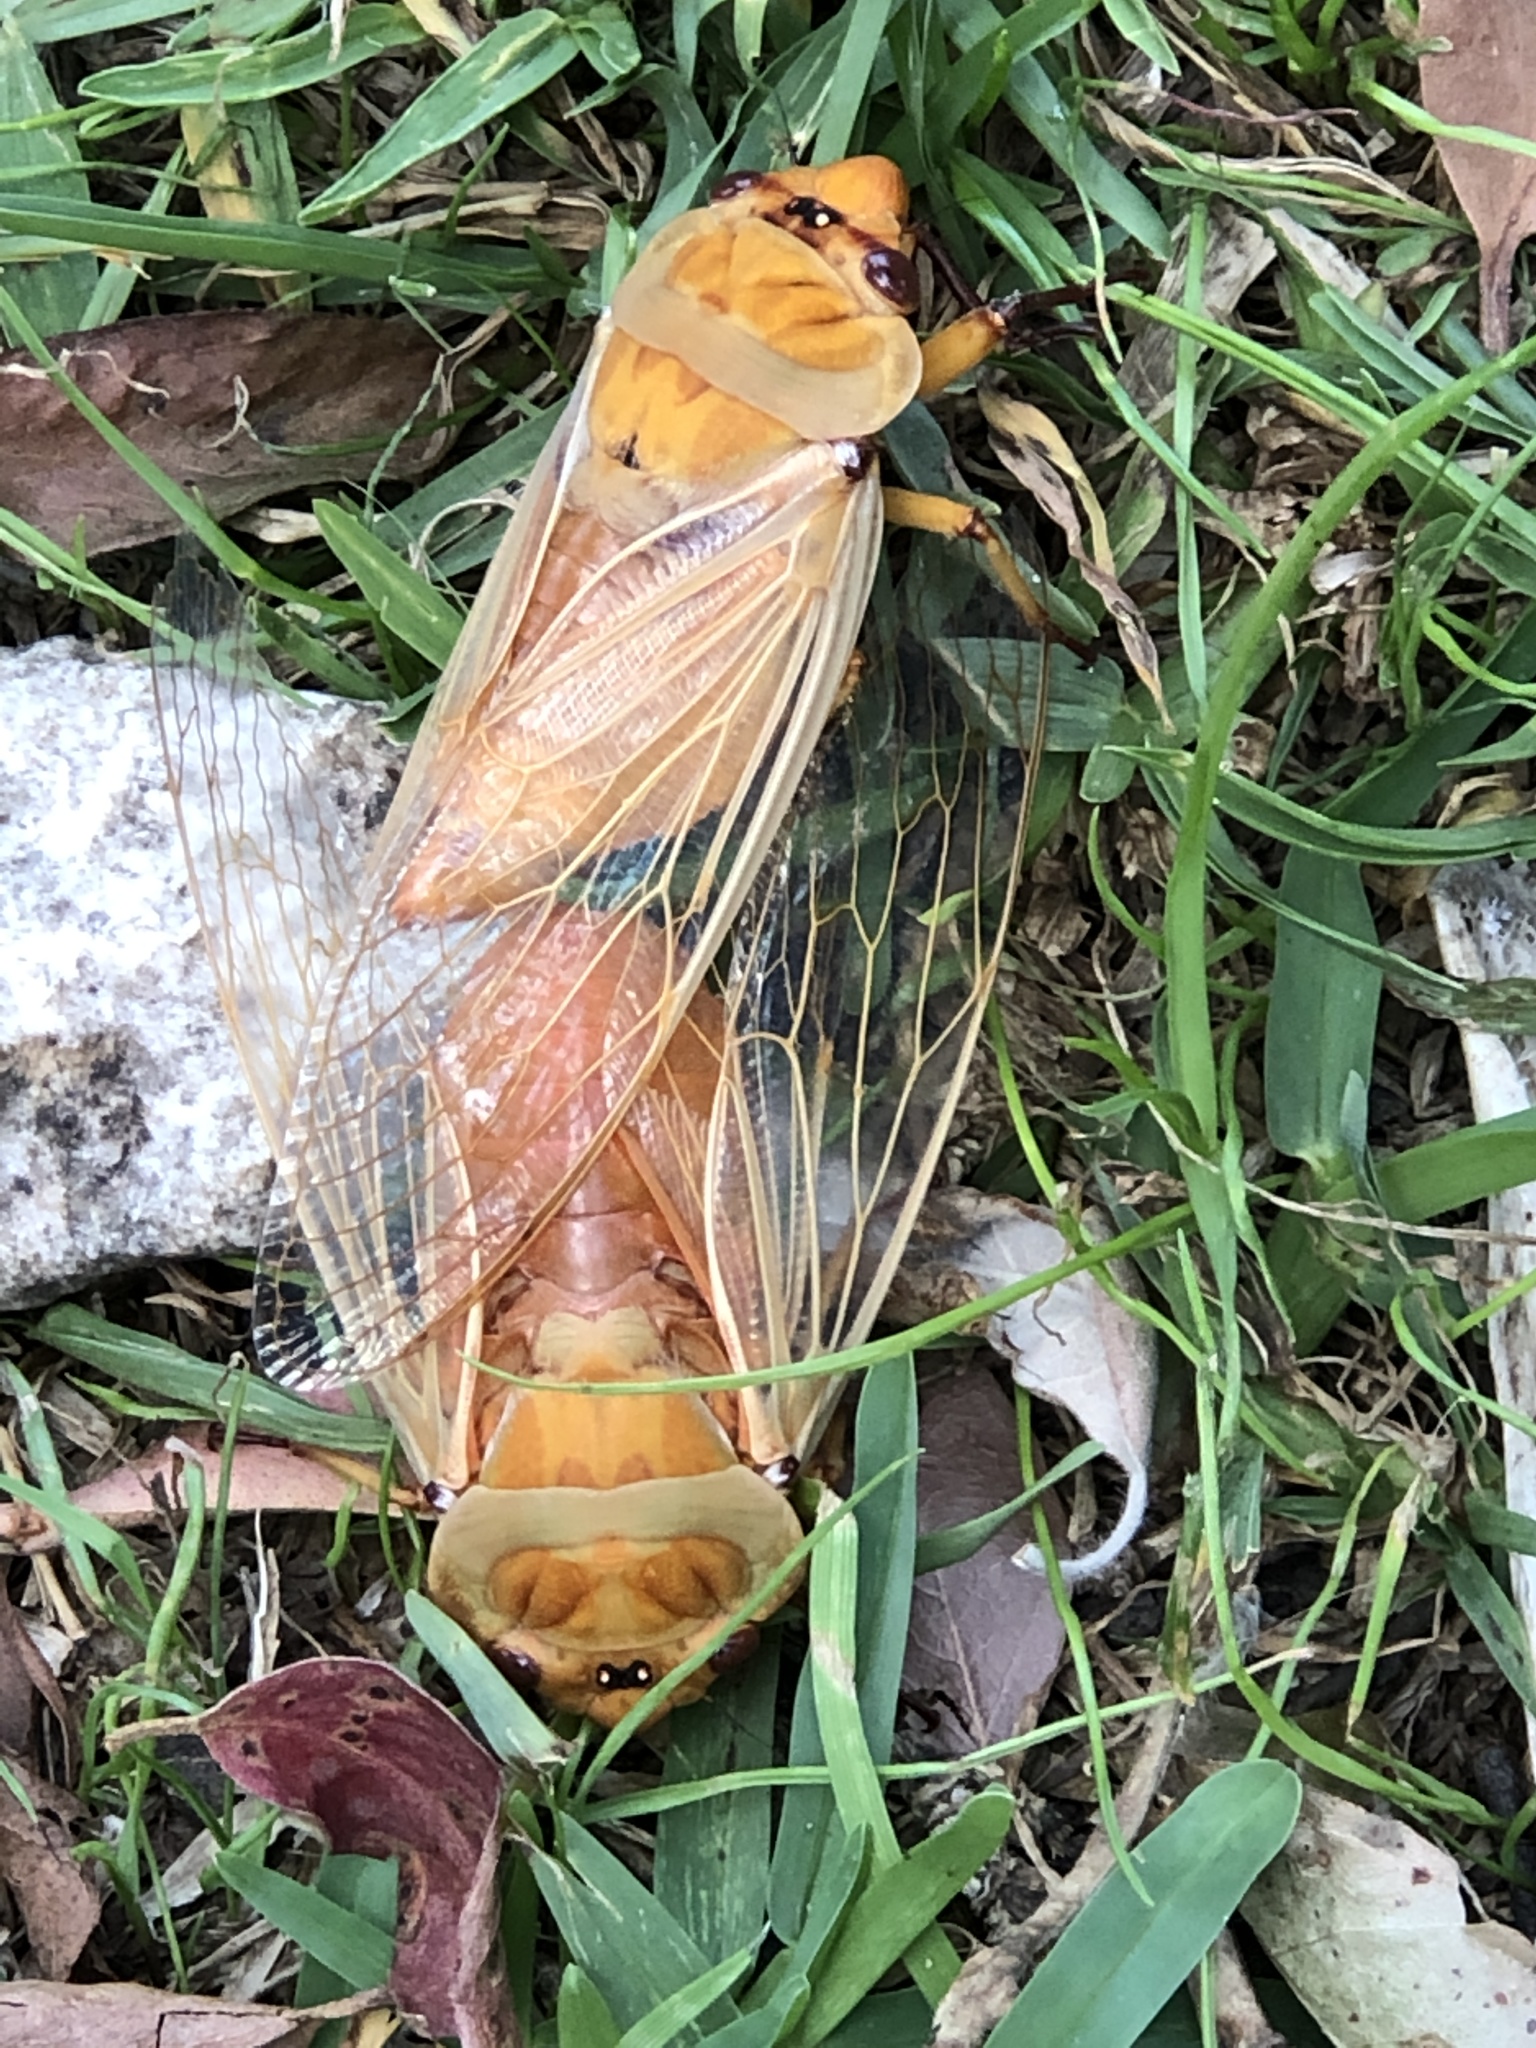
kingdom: Animalia
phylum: Arthropoda
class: Insecta
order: Hemiptera
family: Cicadidae
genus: Cyclochila
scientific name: Cyclochila australasiae
